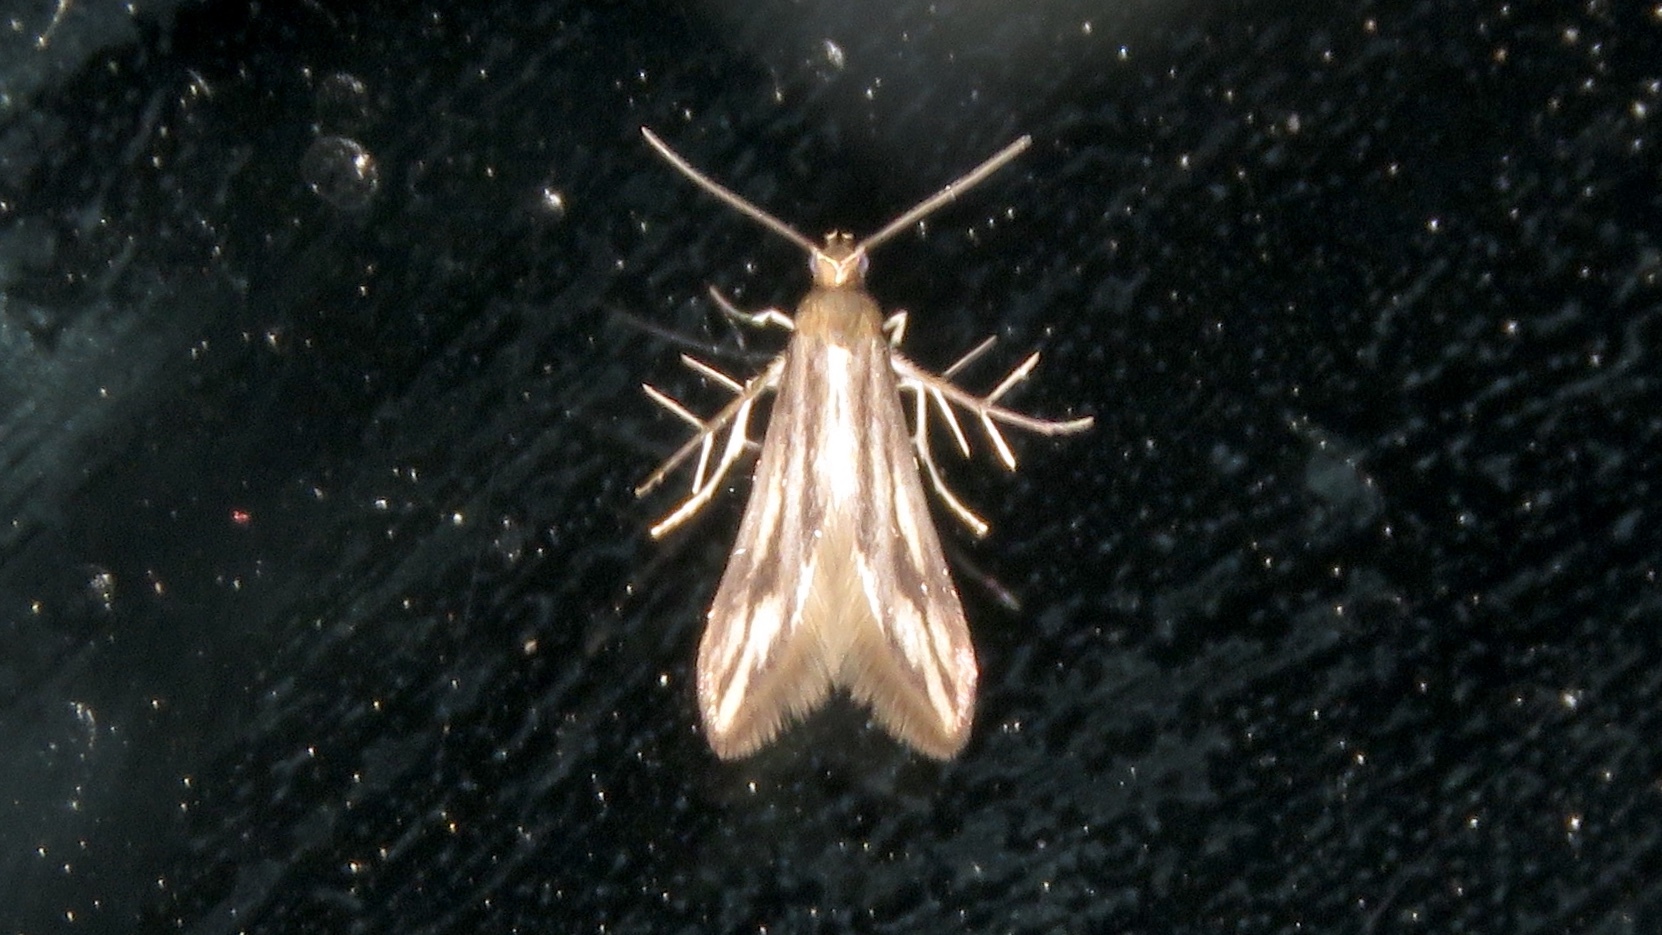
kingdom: Animalia
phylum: Arthropoda
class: Insecta
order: Lepidoptera
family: Schreckensteiniidae
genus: Schreckensteinia
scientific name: Schreckensteinia festaliella
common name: Blackberry skeletonizer
